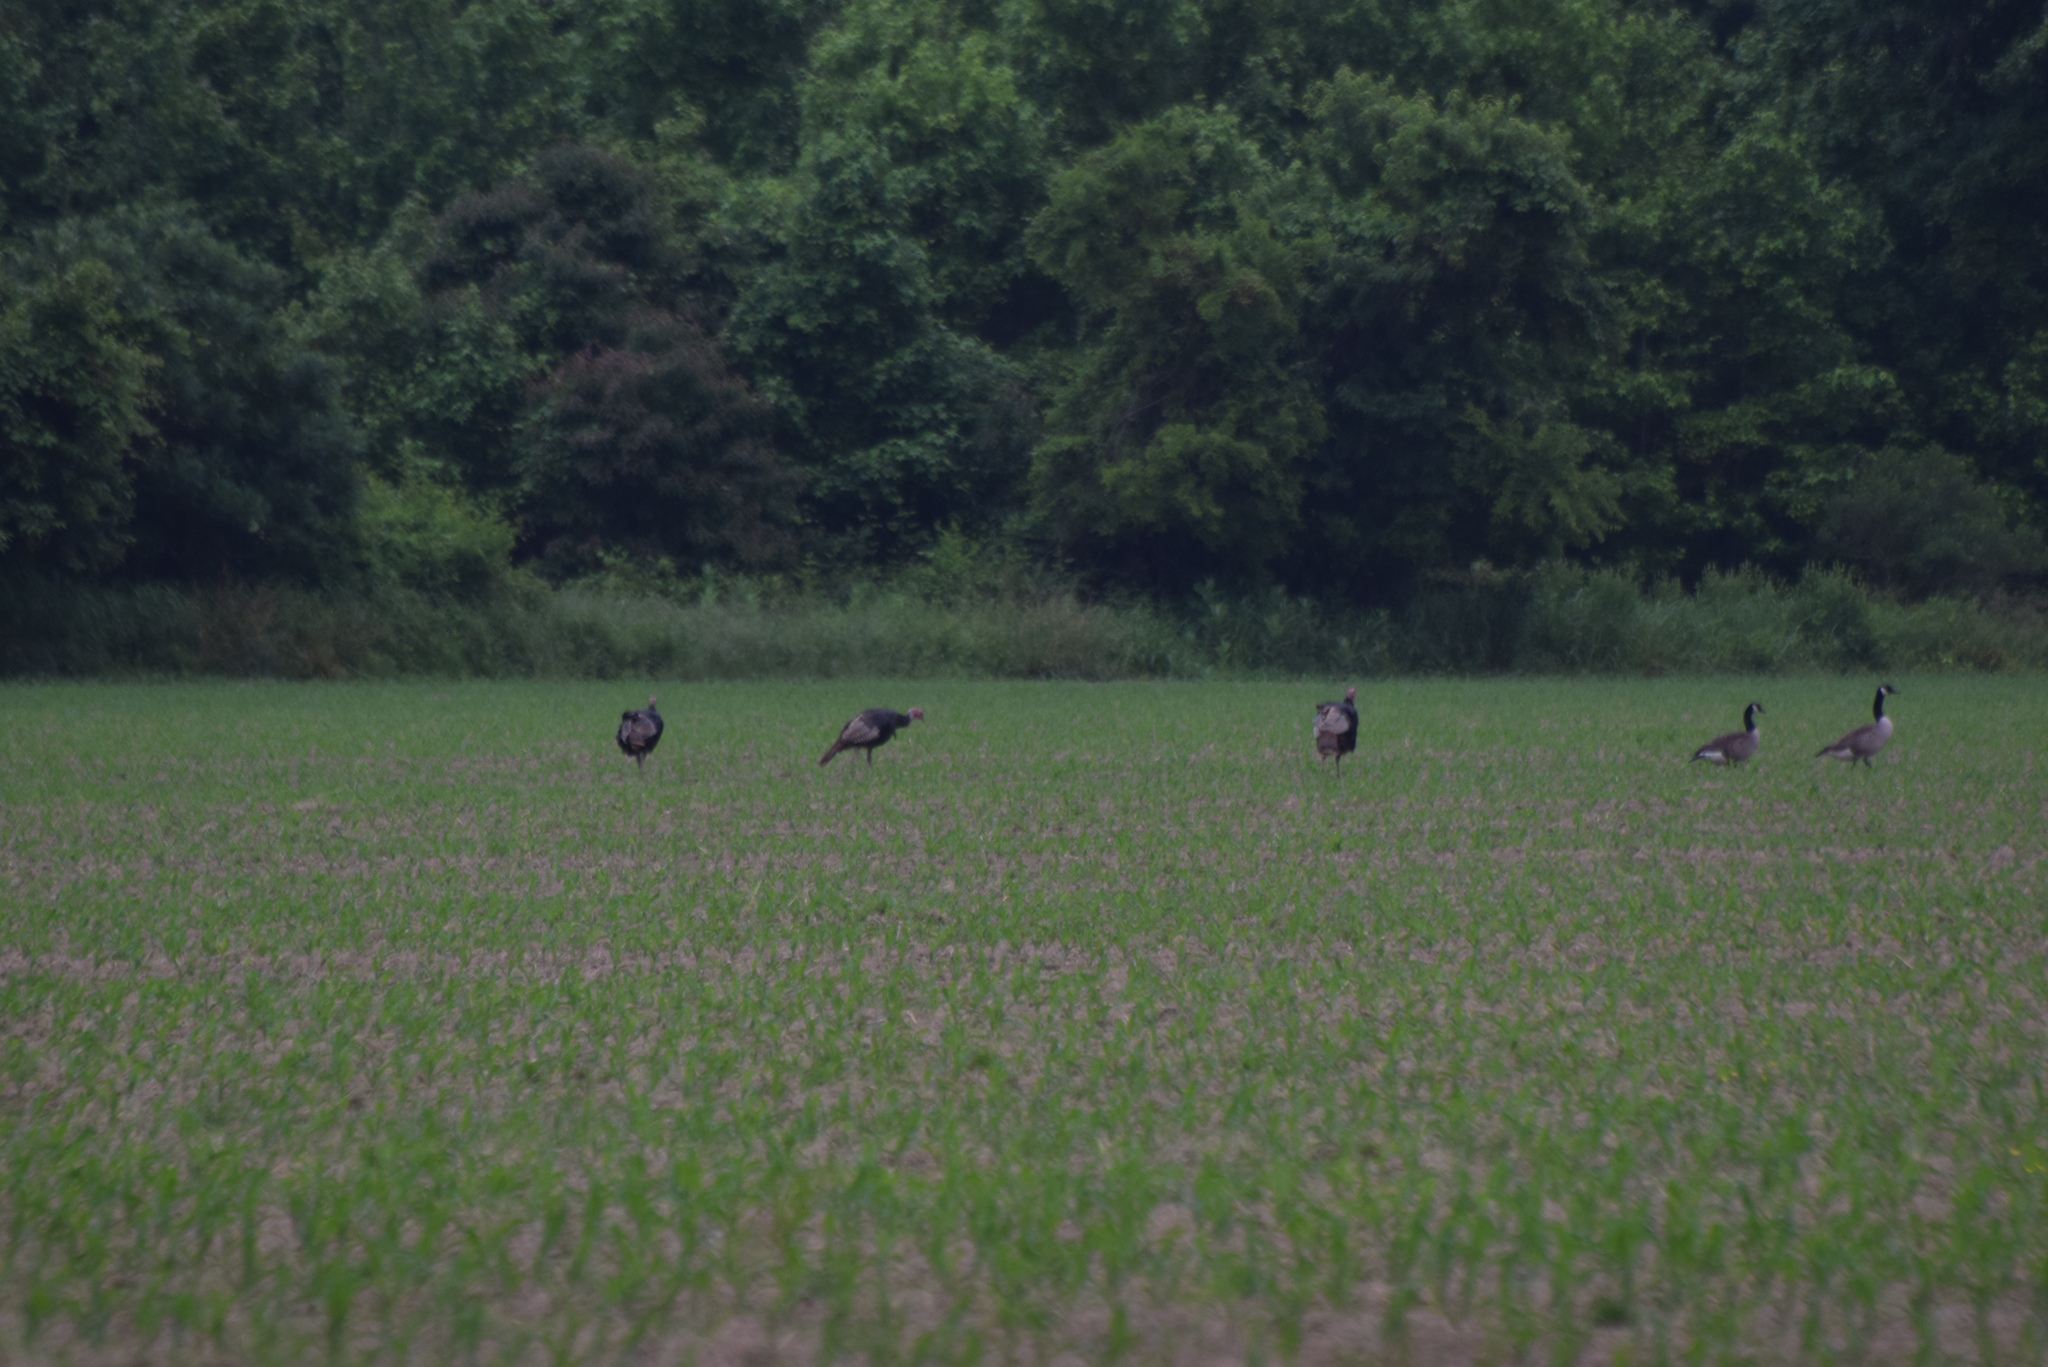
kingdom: Animalia
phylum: Chordata
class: Aves
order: Galliformes
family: Phasianidae
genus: Meleagris
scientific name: Meleagris gallopavo
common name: Wild turkey
